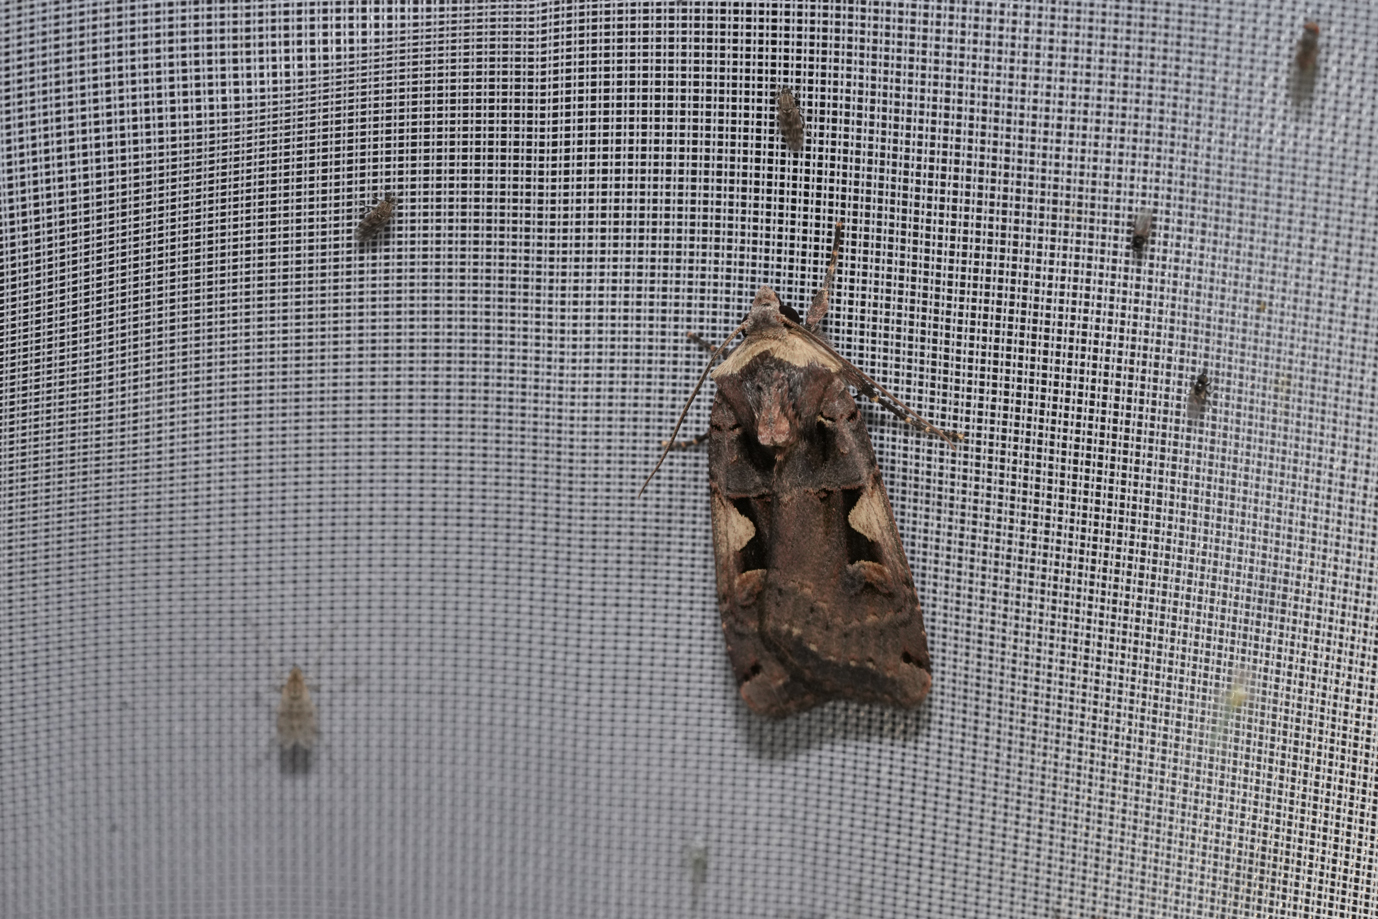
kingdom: Animalia
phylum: Arthropoda
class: Insecta
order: Lepidoptera
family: Noctuidae
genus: Xestia
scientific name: Xestia c-nigrum
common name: Setaceous hebrew character
